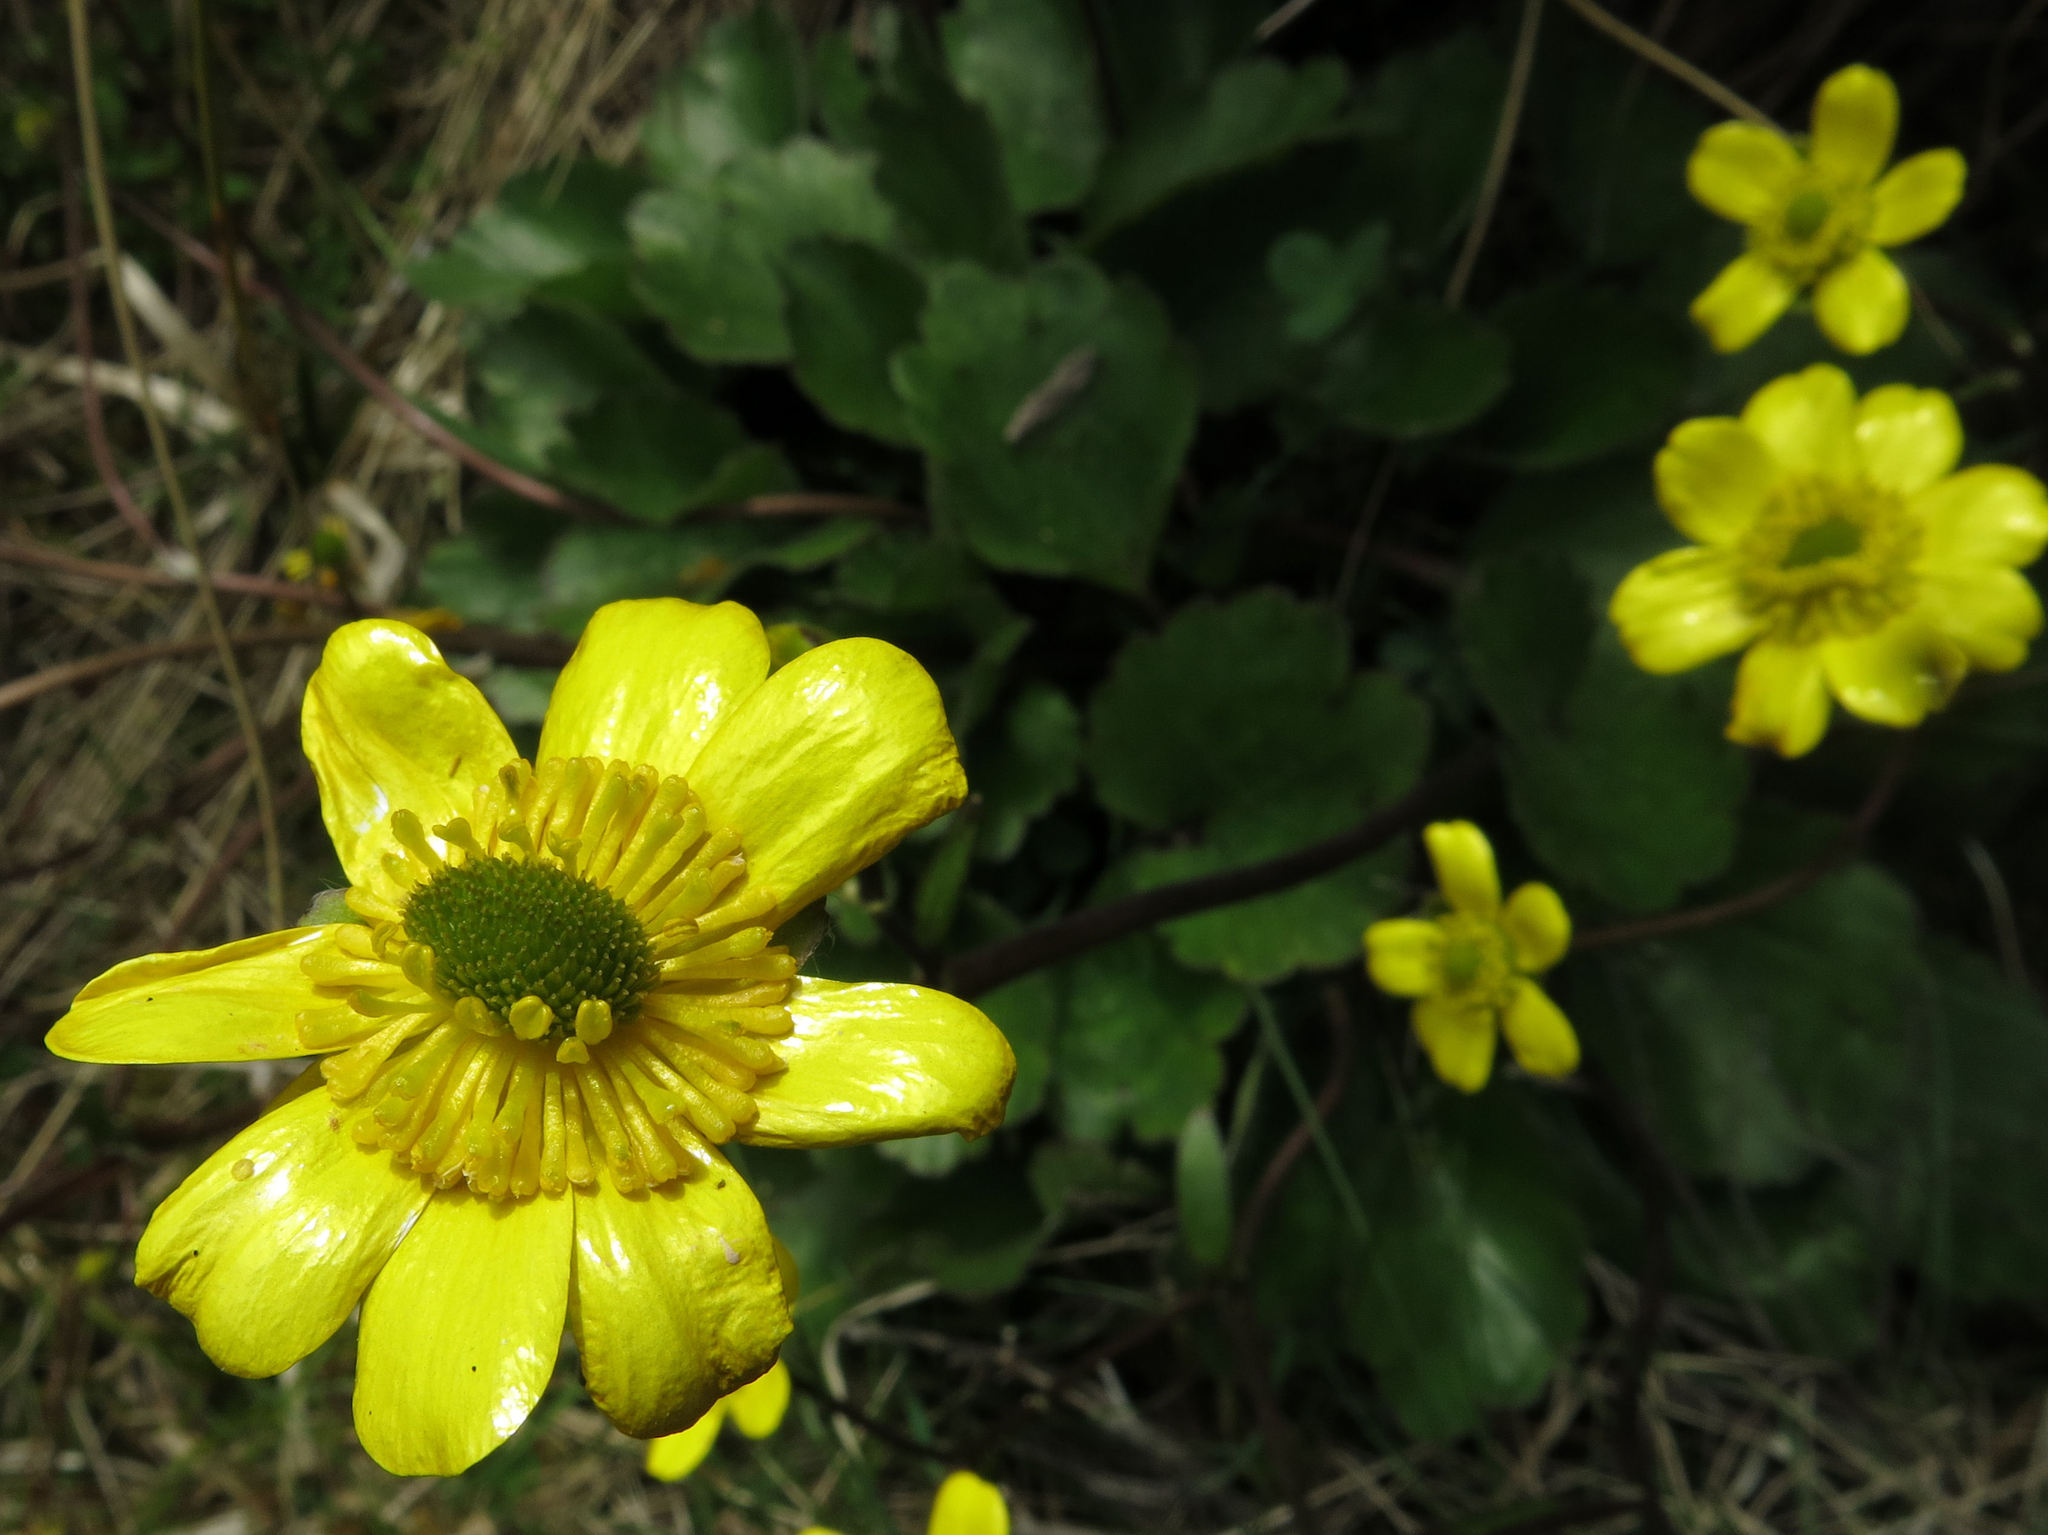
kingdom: Plantae
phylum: Tracheophyta
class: Magnoliopsida
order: Ranunculales
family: Ranunculaceae
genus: Ranunculus
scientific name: Ranunculus insignis
